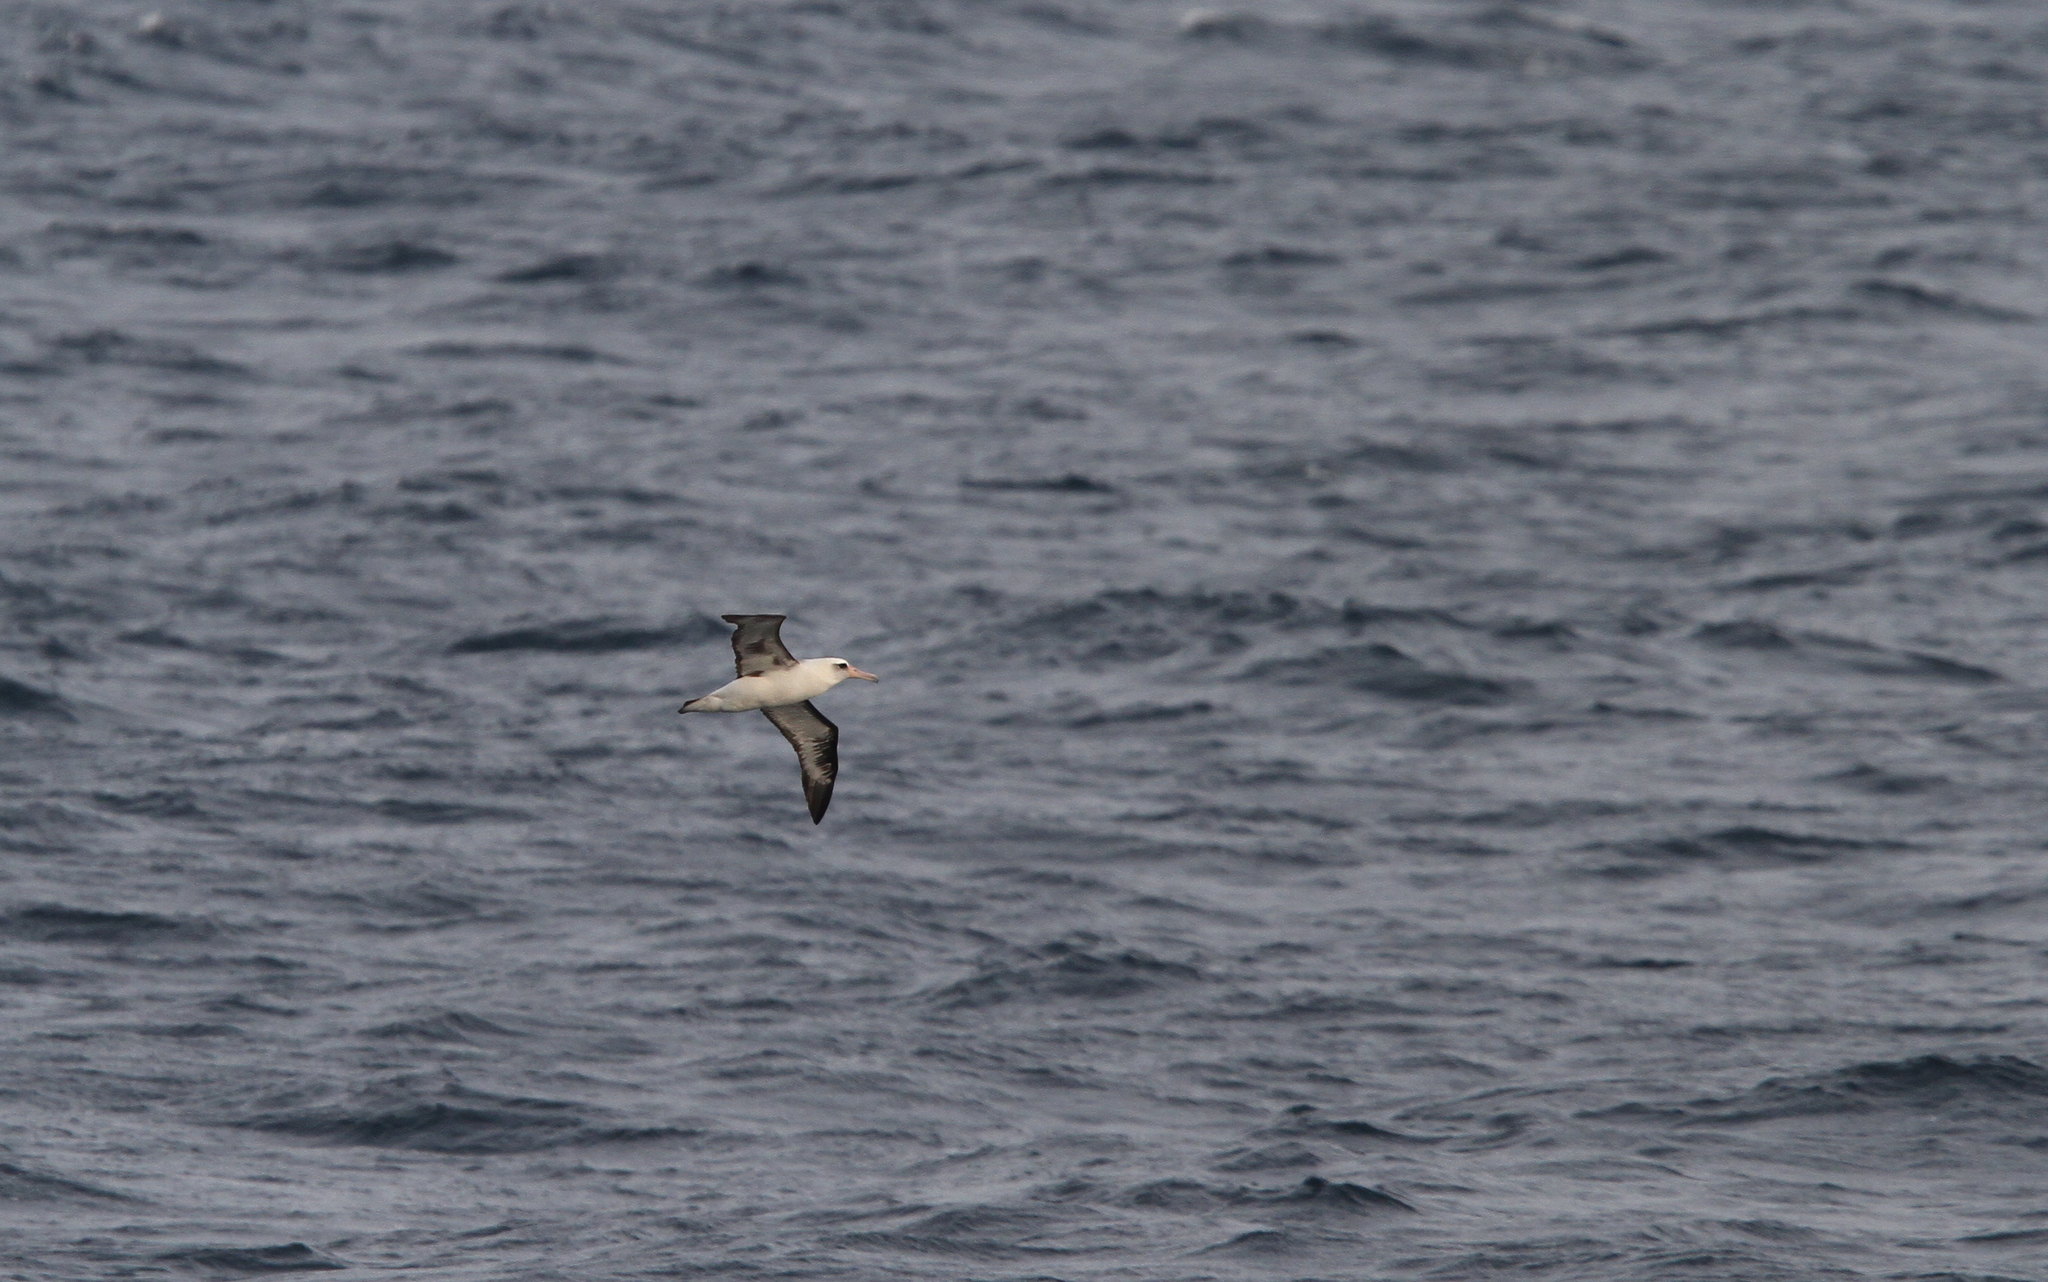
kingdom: Animalia
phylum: Chordata
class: Aves
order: Procellariiformes
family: Diomedeidae
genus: Phoebastria
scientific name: Phoebastria immutabilis
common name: Laysan albatross
